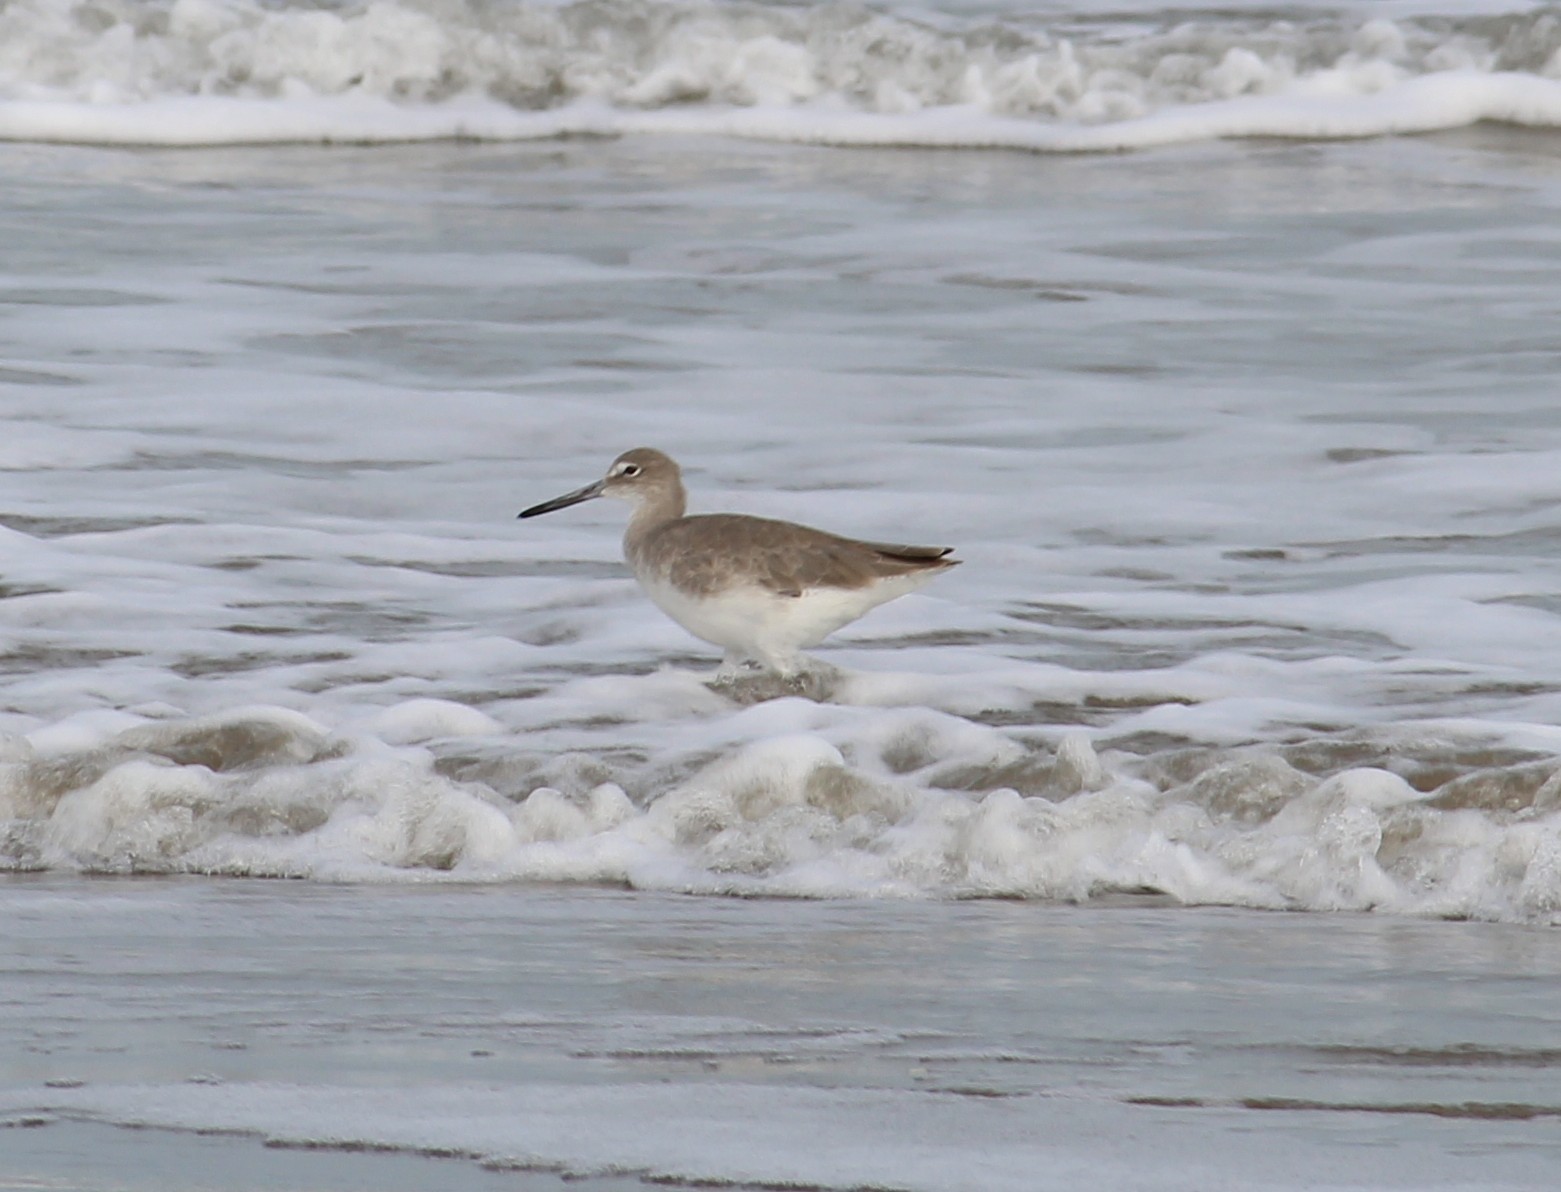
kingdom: Animalia
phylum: Chordata
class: Aves
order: Charadriiformes
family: Scolopacidae
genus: Tringa
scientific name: Tringa semipalmata
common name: Willet
